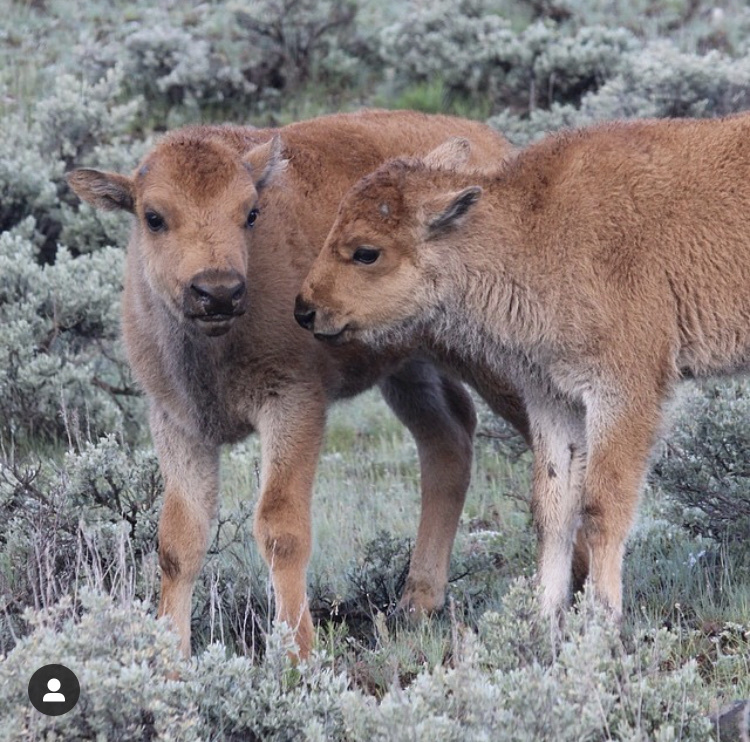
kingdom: Animalia
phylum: Chordata
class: Mammalia
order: Artiodactyla
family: Bovidae
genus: Bison
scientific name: Bison bison
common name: American bison
